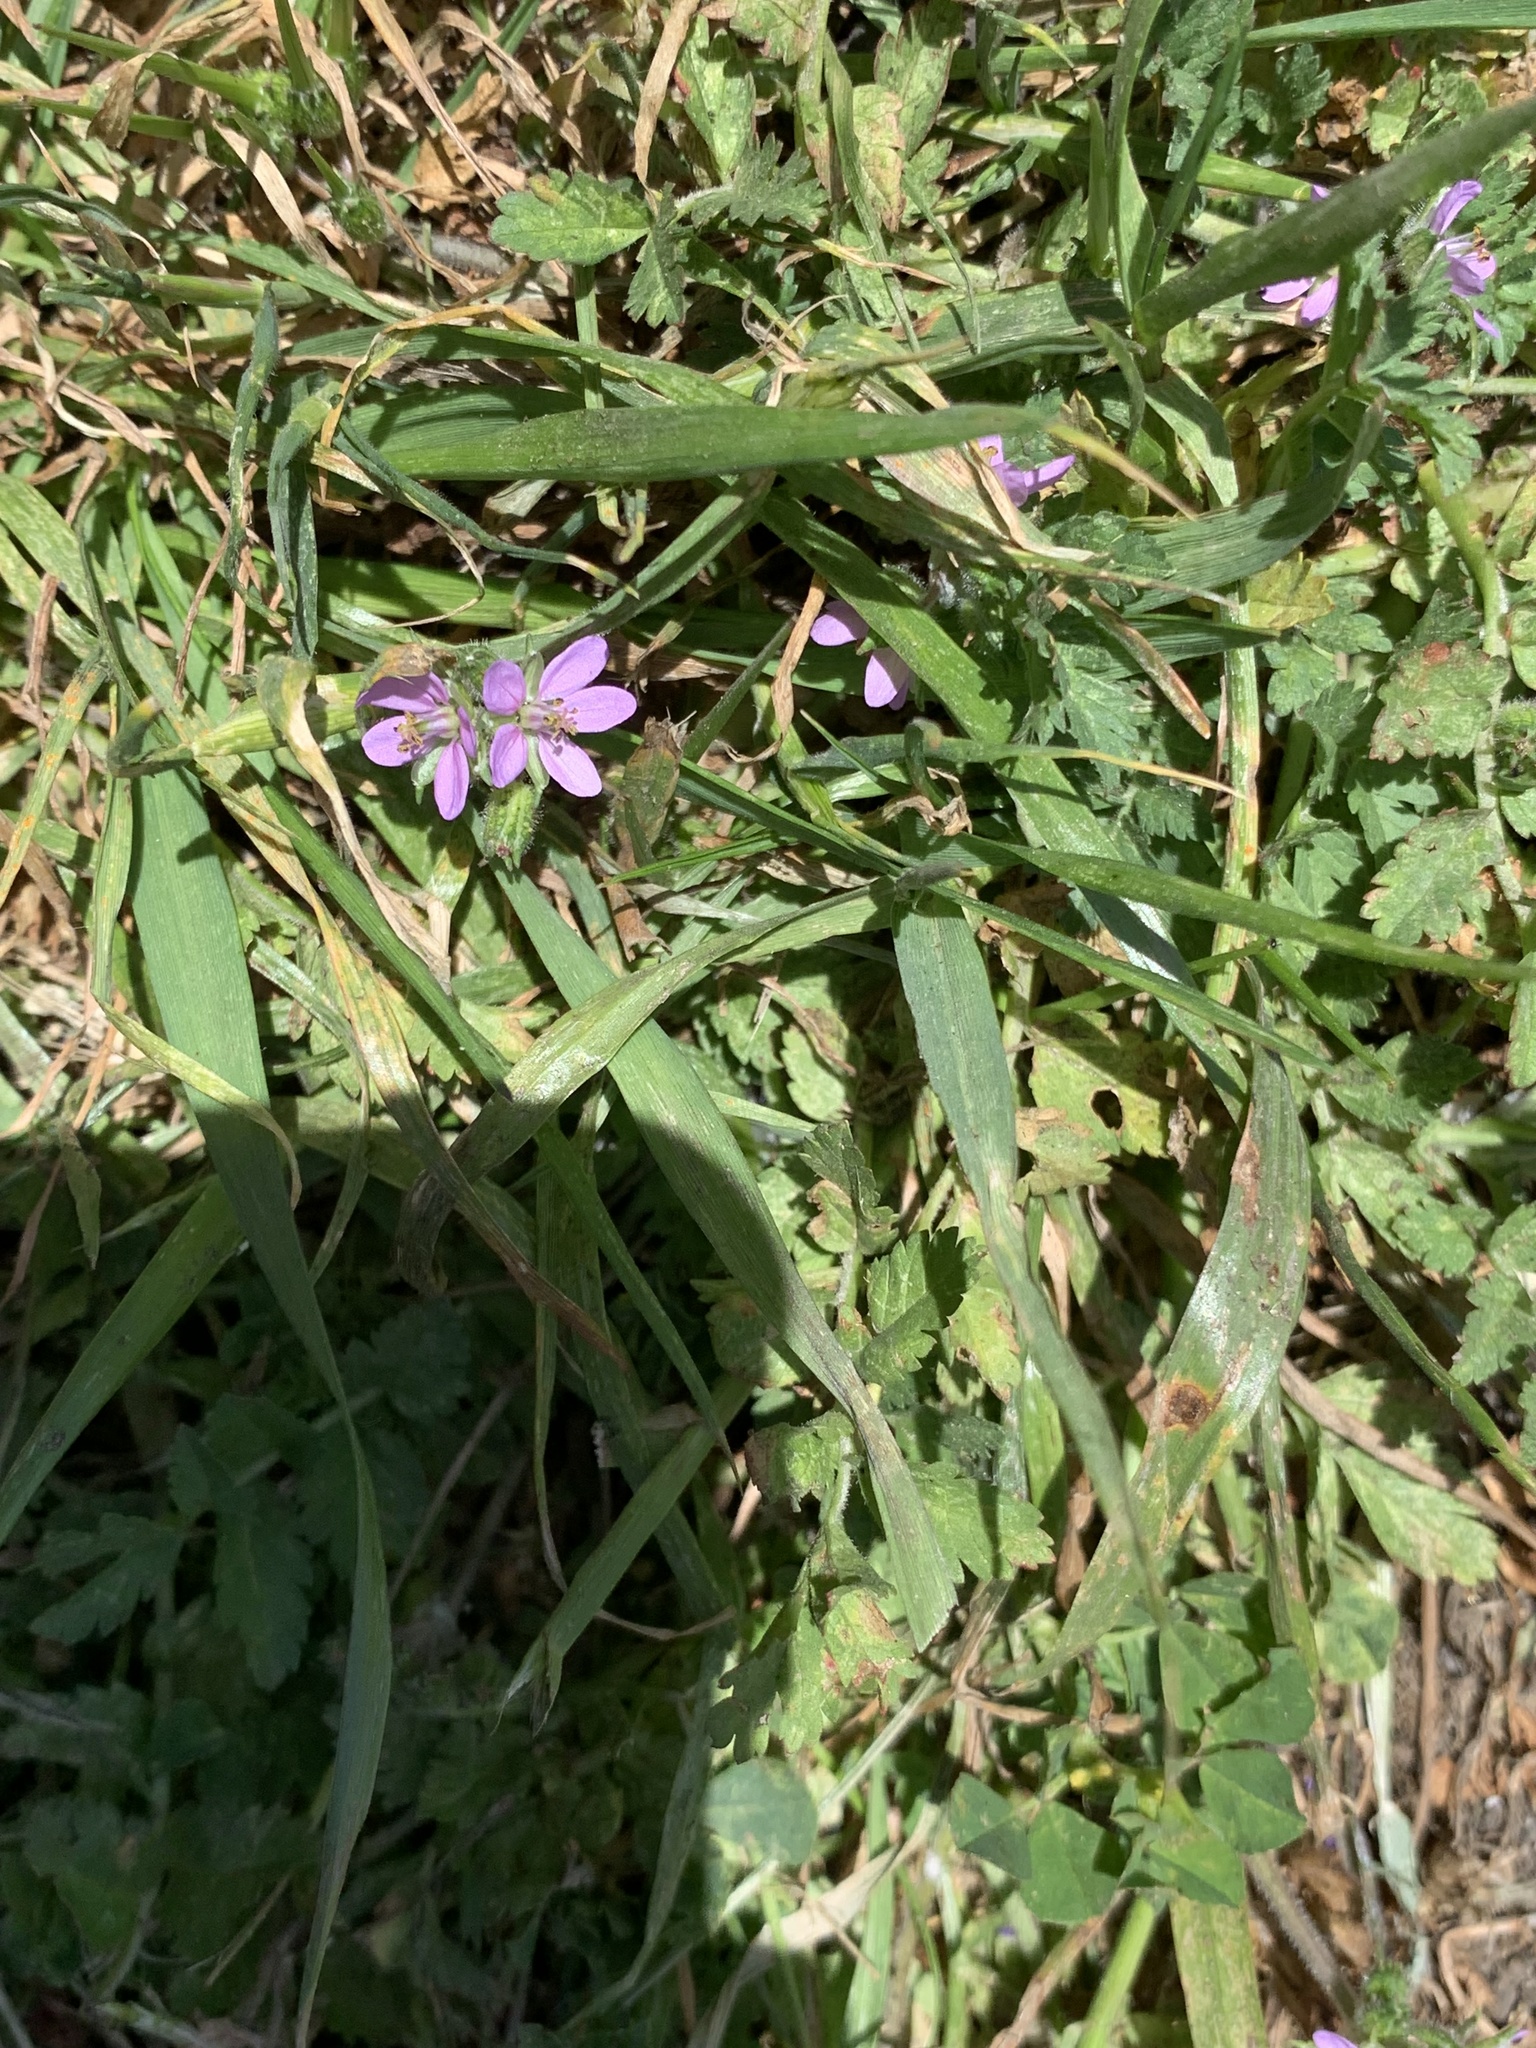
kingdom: Plantae
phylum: Tracheophyta
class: Magnoliopsida
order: Geraniales
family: Geraniaceae
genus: Erodium
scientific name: Erodium moschatum
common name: Musk stork's-bill
